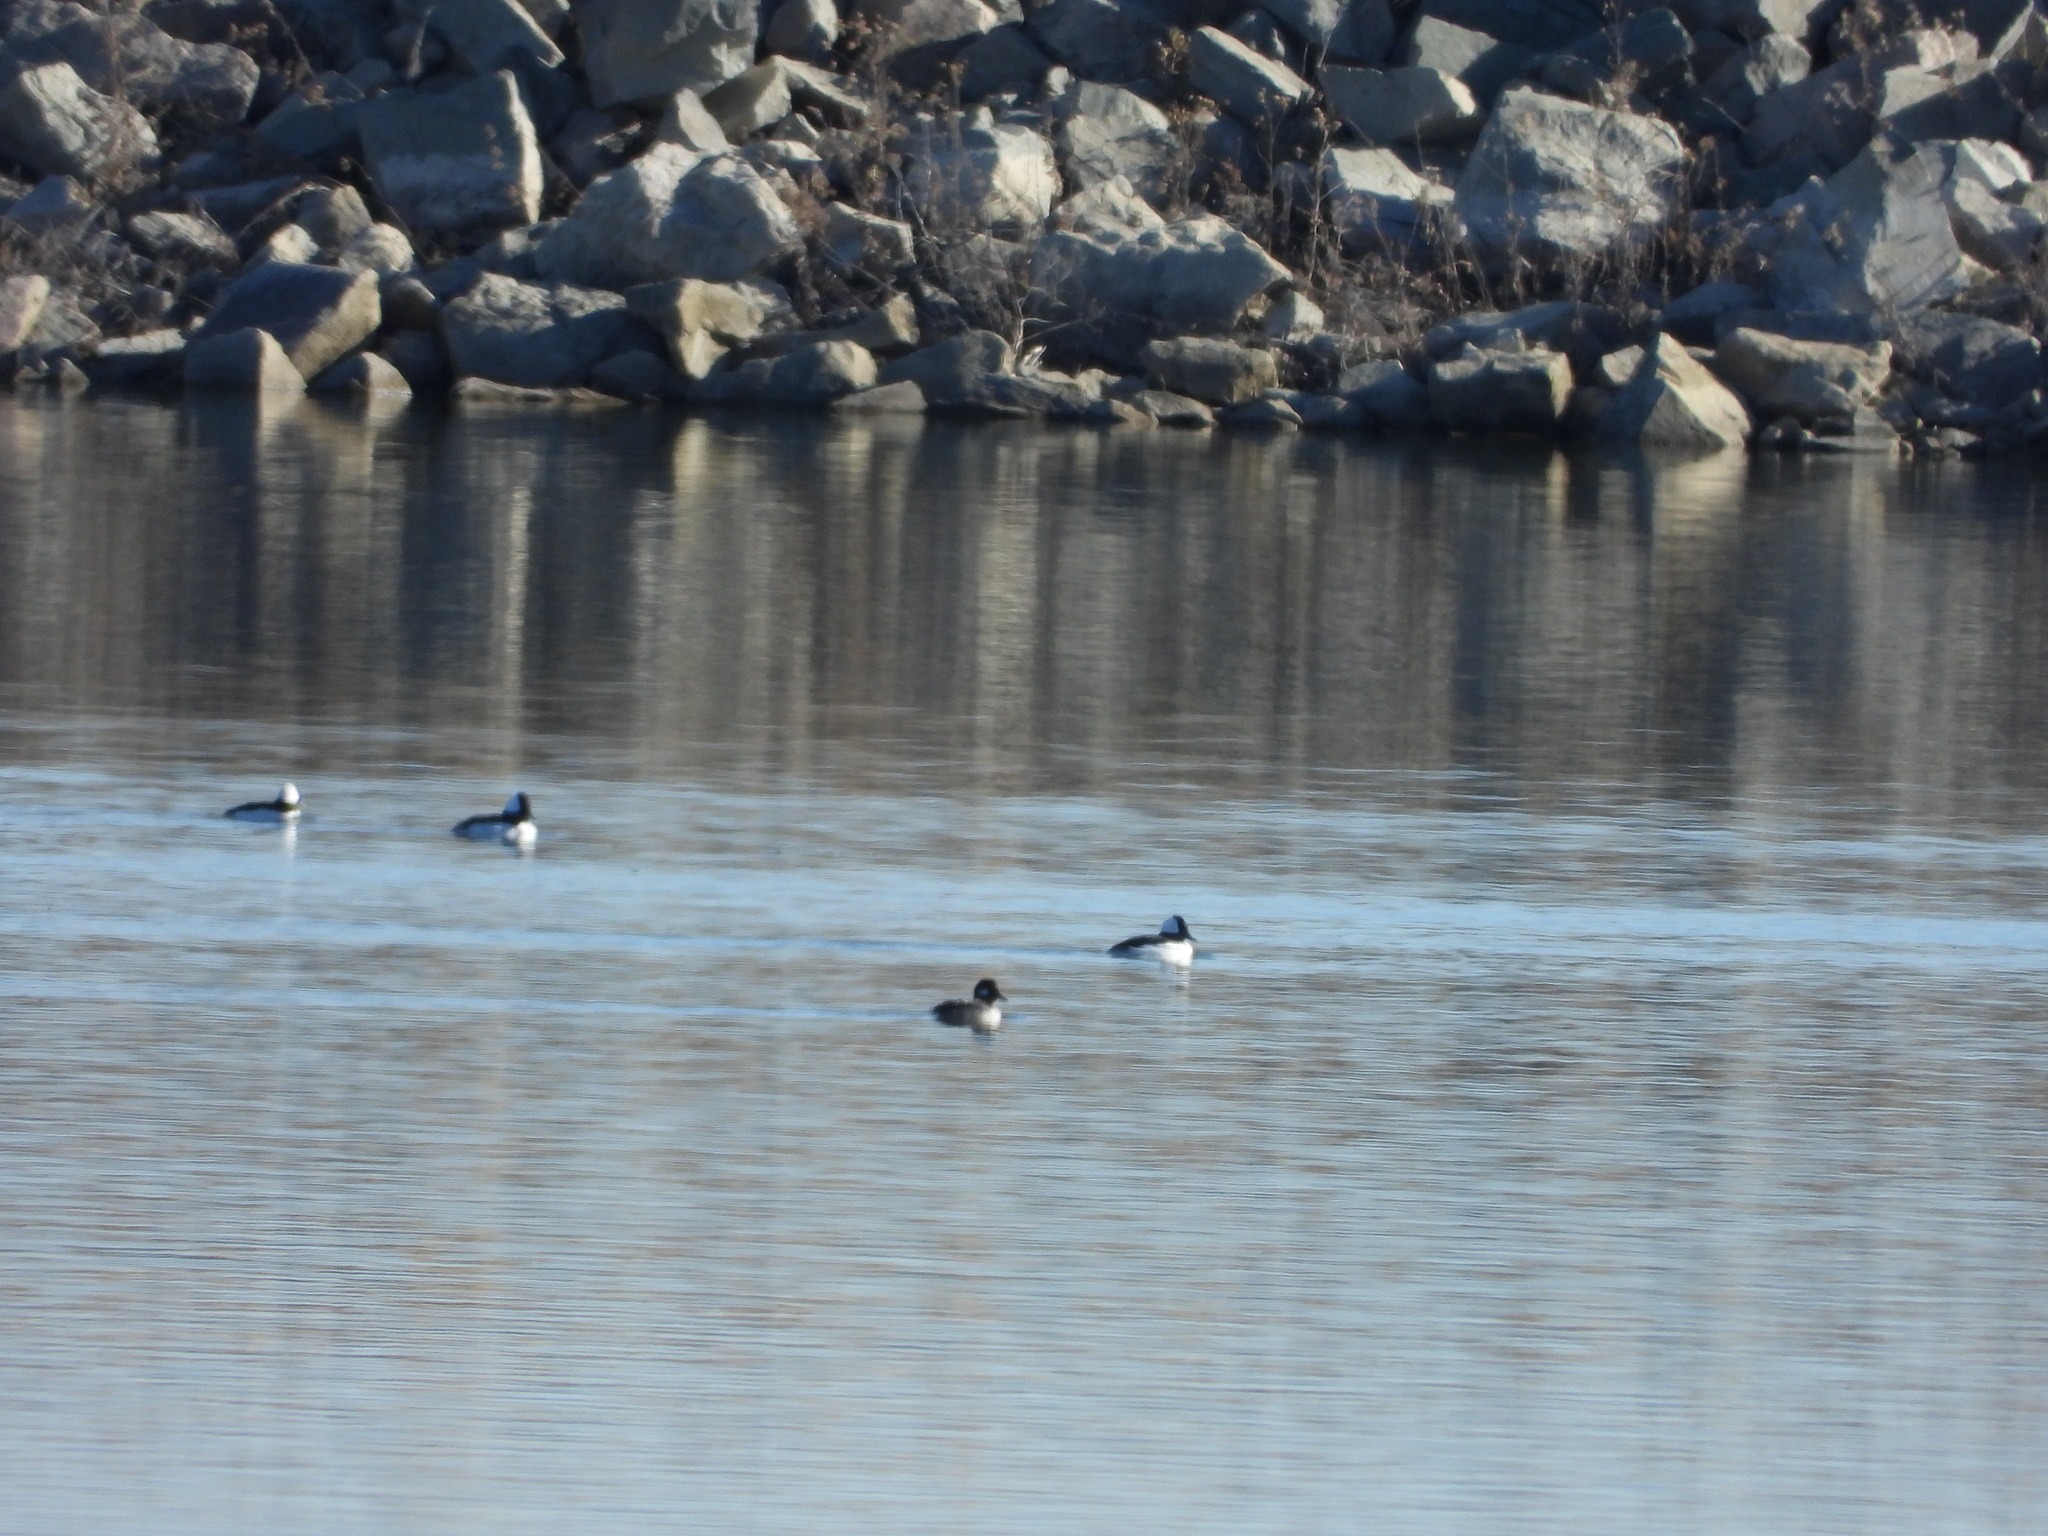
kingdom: Animalia
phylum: Chordata
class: Aves
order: Anseriformes
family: Anatidae
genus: Bucephala
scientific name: Bucephala albeola
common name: Bufflehead
